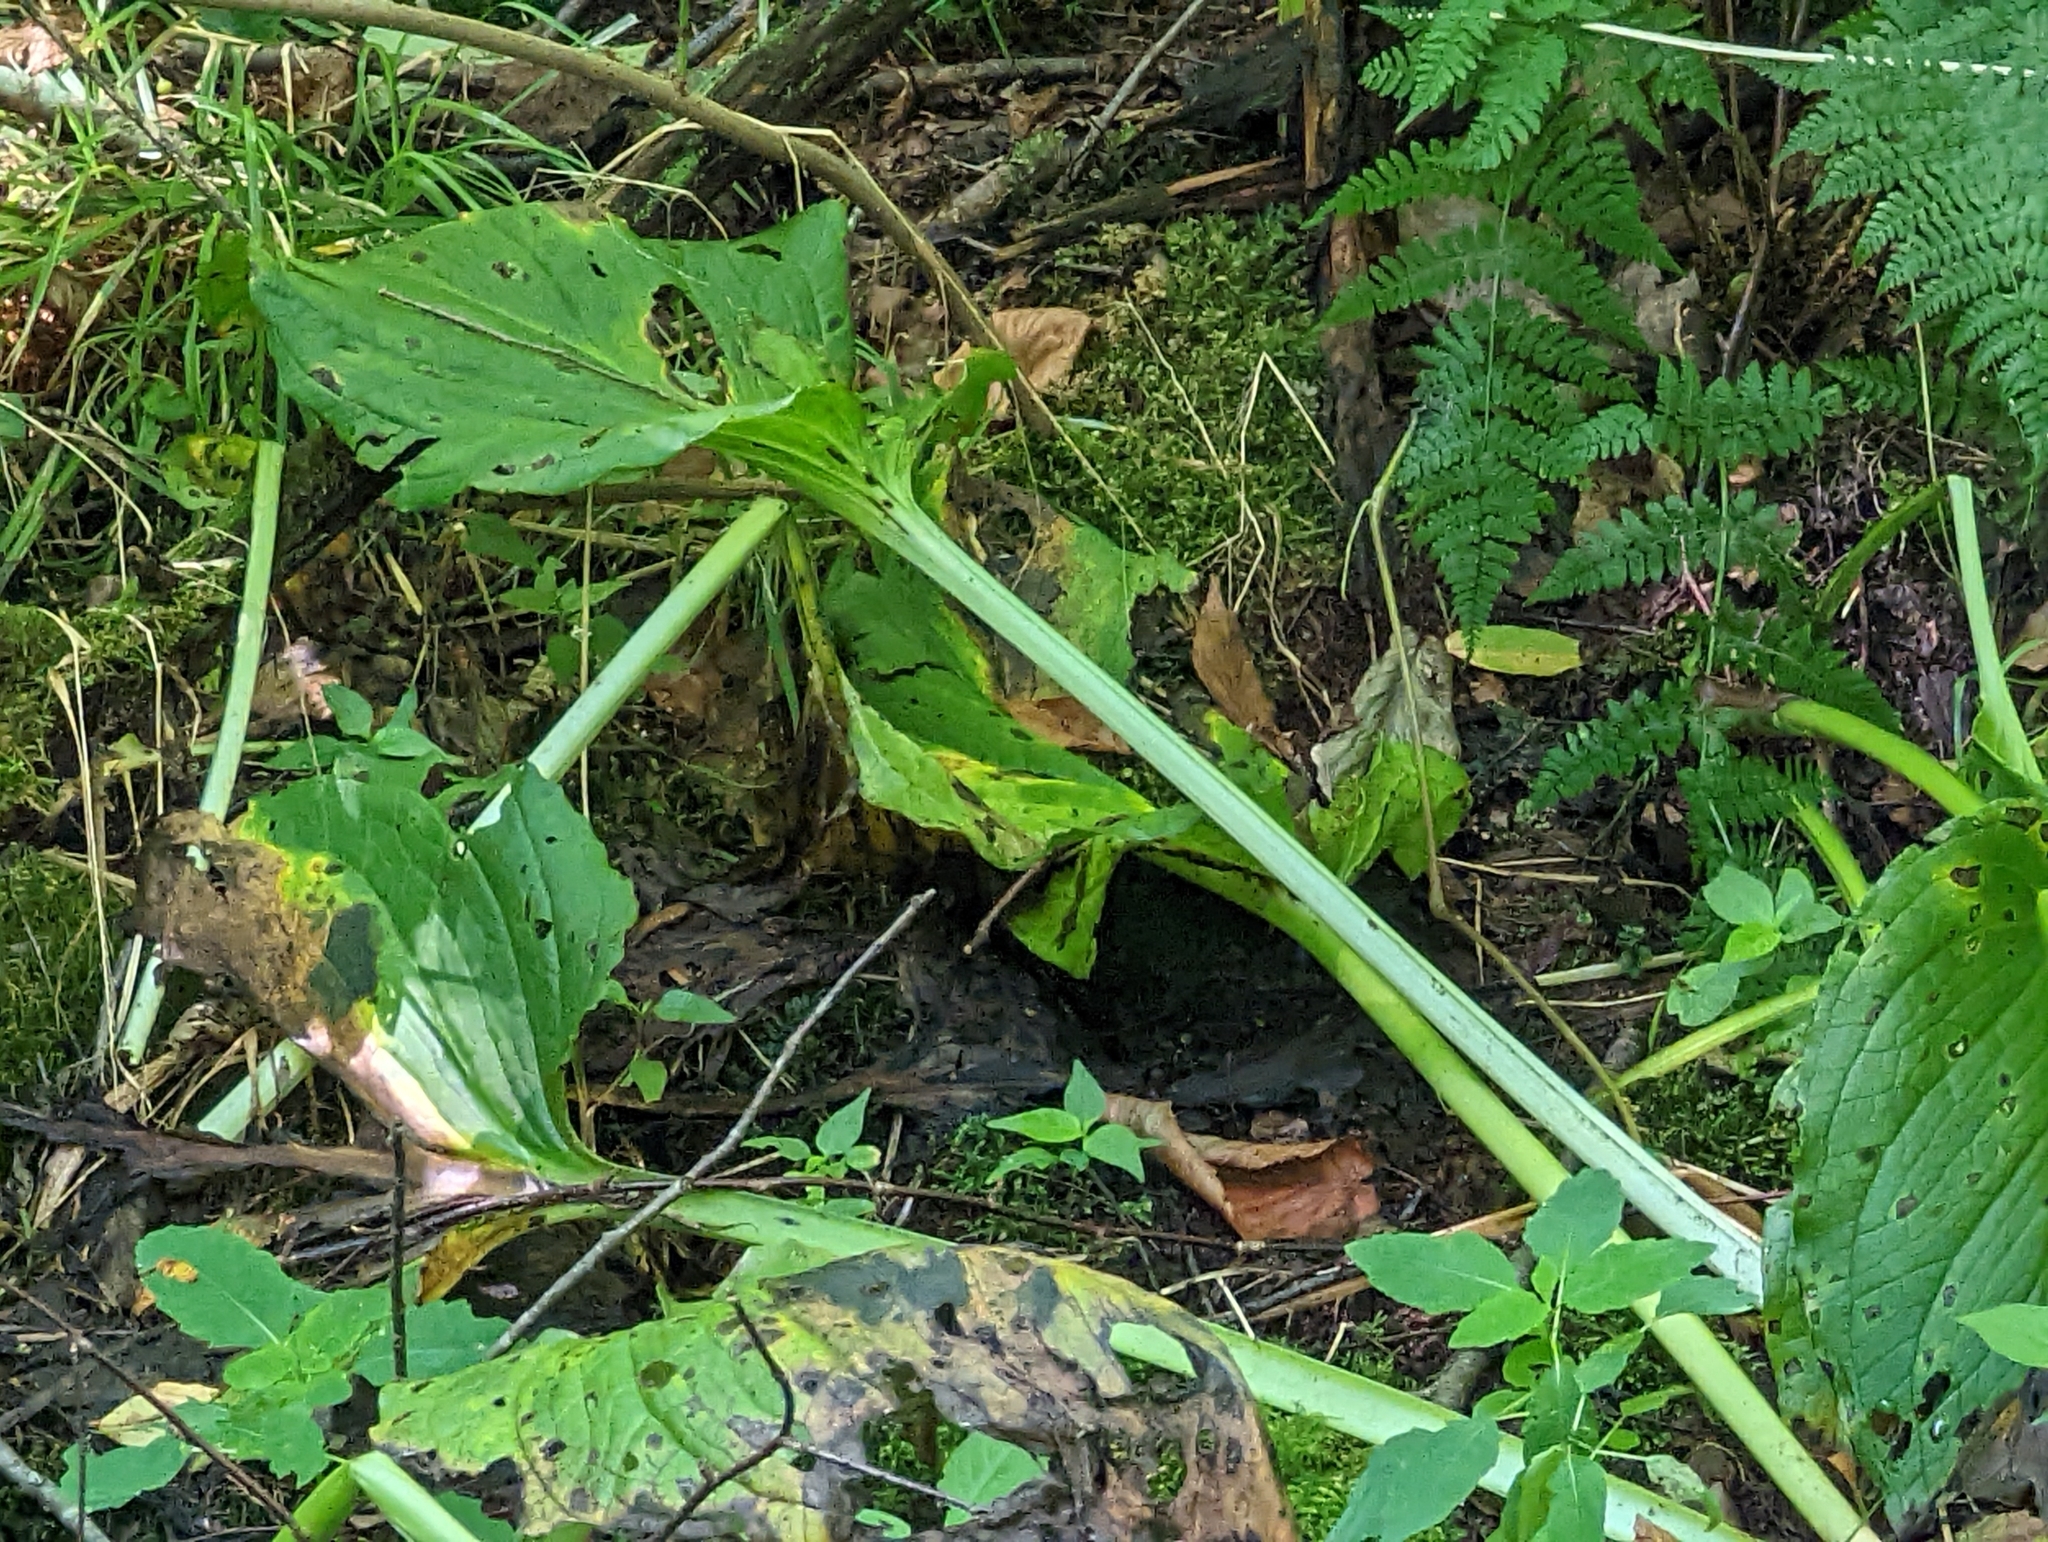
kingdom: Plantae
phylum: Tracheophyta
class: Liliopsida
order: Alismatales
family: Araceae
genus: Symplocarpus
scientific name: Symplocarpus foetidus
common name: Eastern skunk cabbage
